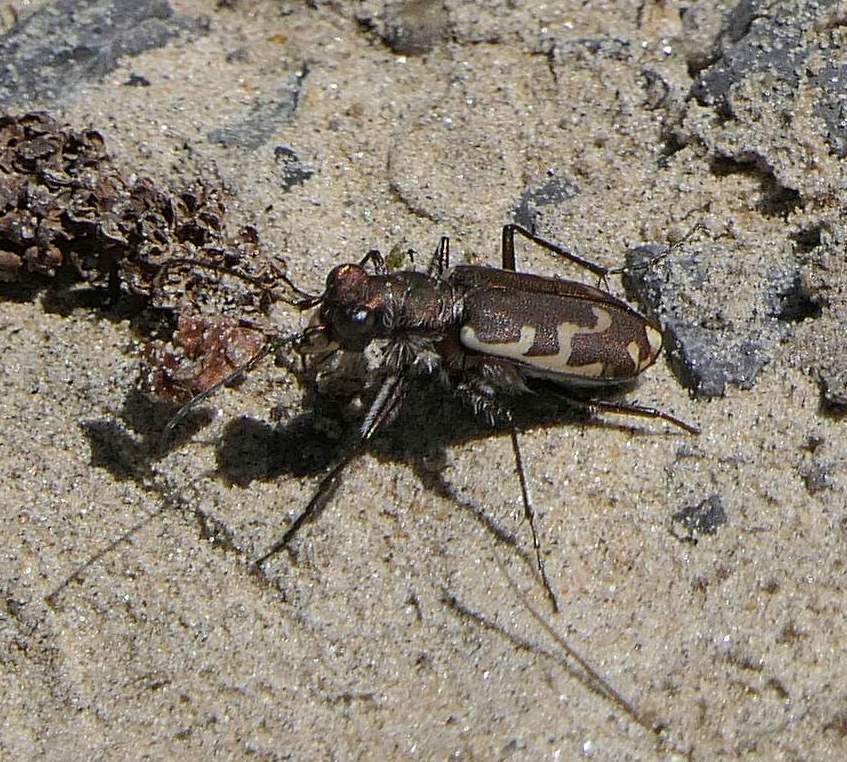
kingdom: Animalia
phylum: Arthropoda
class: Insecta
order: Coleoptera
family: Carabidae
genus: Cicindela
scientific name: Cicindela repanda
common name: Bronzed tiger beetle
